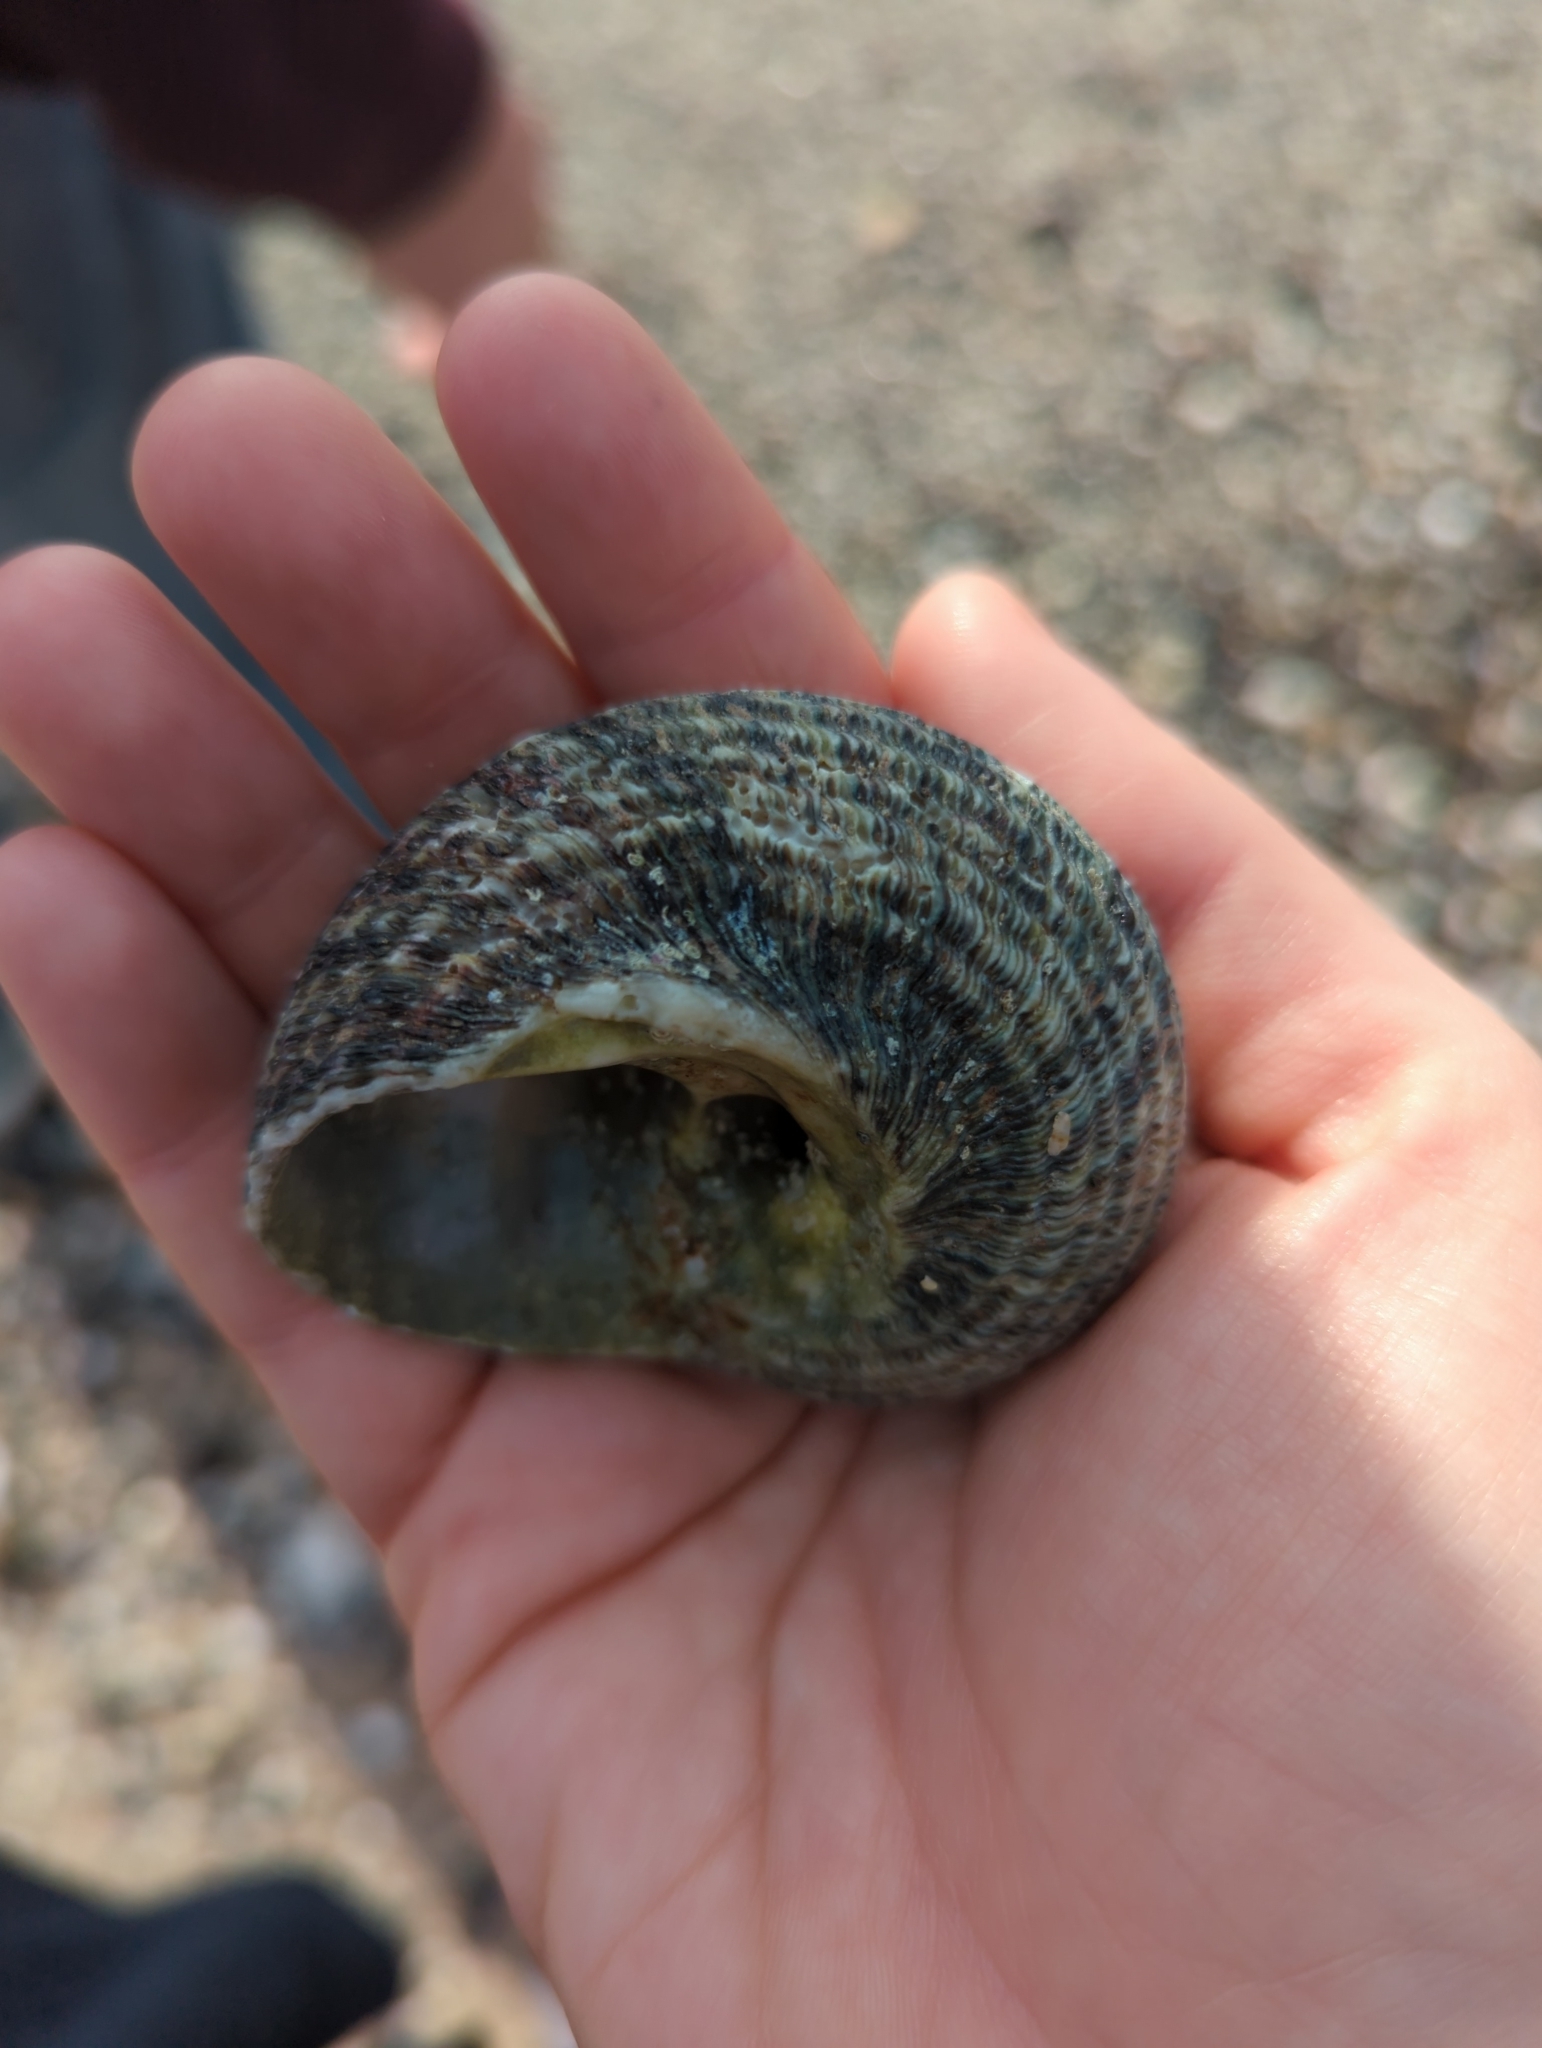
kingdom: Animalia
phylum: Mollusca
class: Gastropoda
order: Trochida
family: Turbinidae
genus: Lunella
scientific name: Lunella torquata
